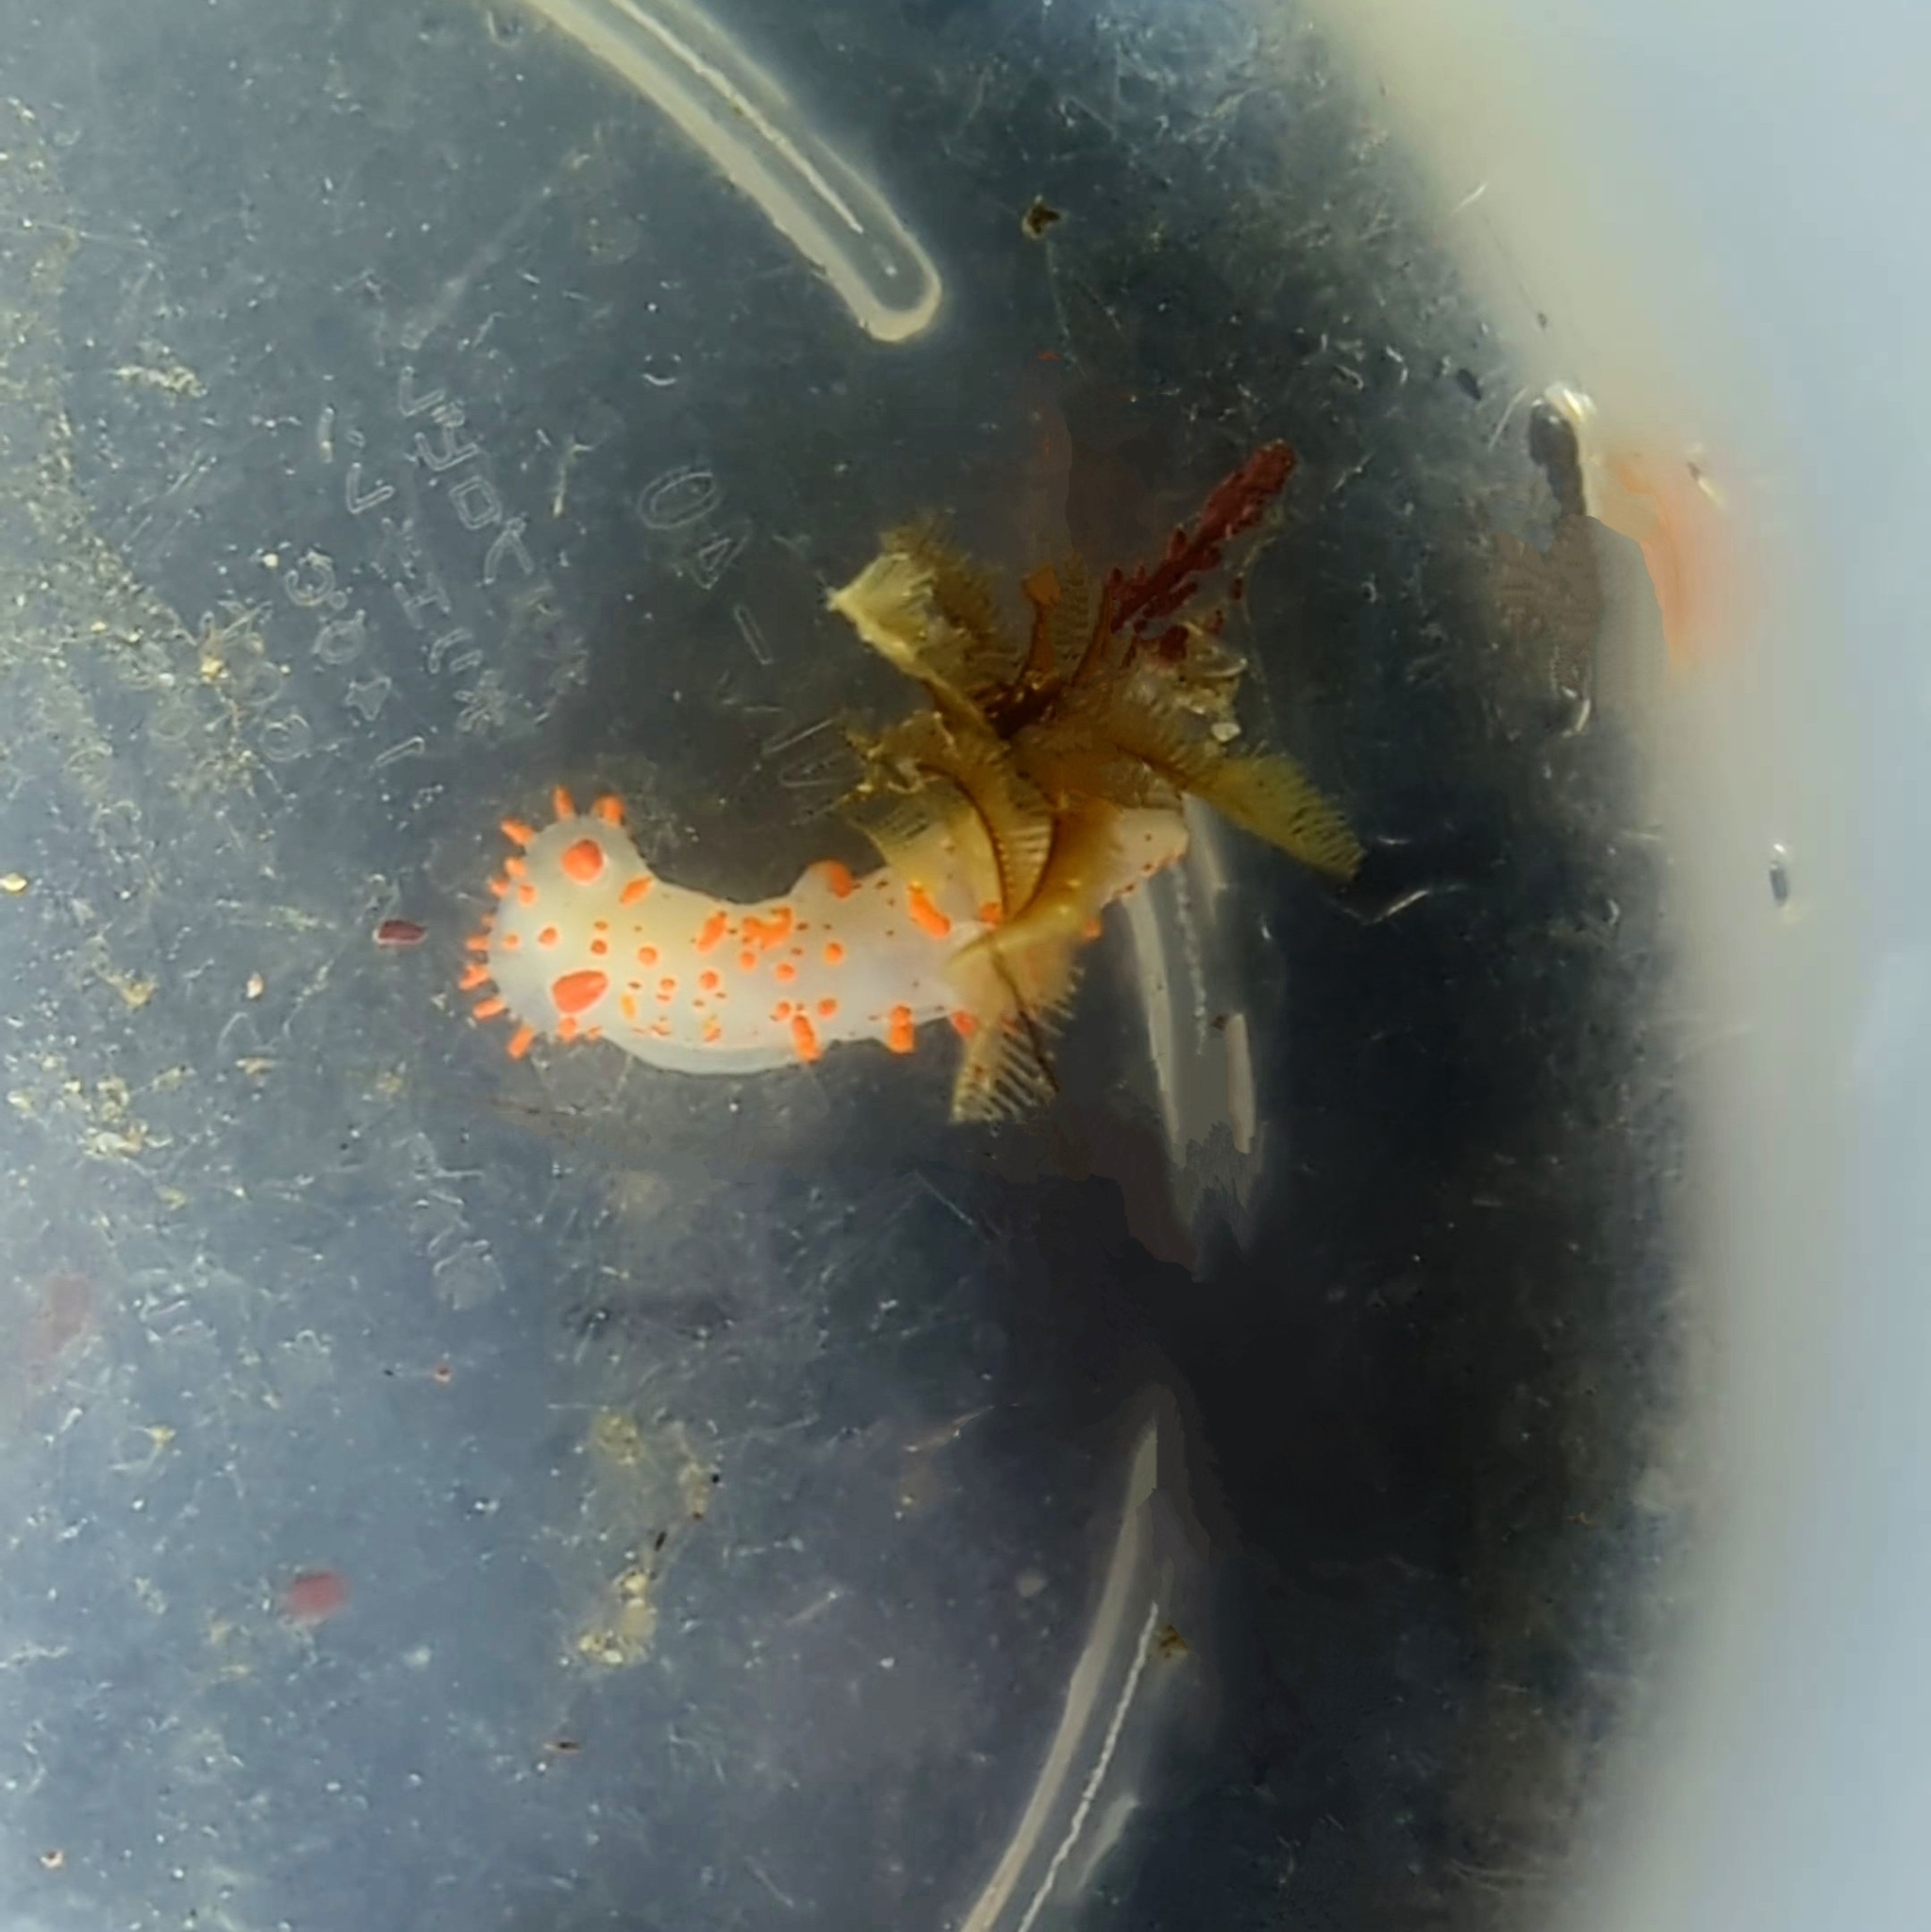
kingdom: Animalia
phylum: Mollusca
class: Gastropoda
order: Nudibranchia
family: Polyceridae
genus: Triopha
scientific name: Triopha catalinae
